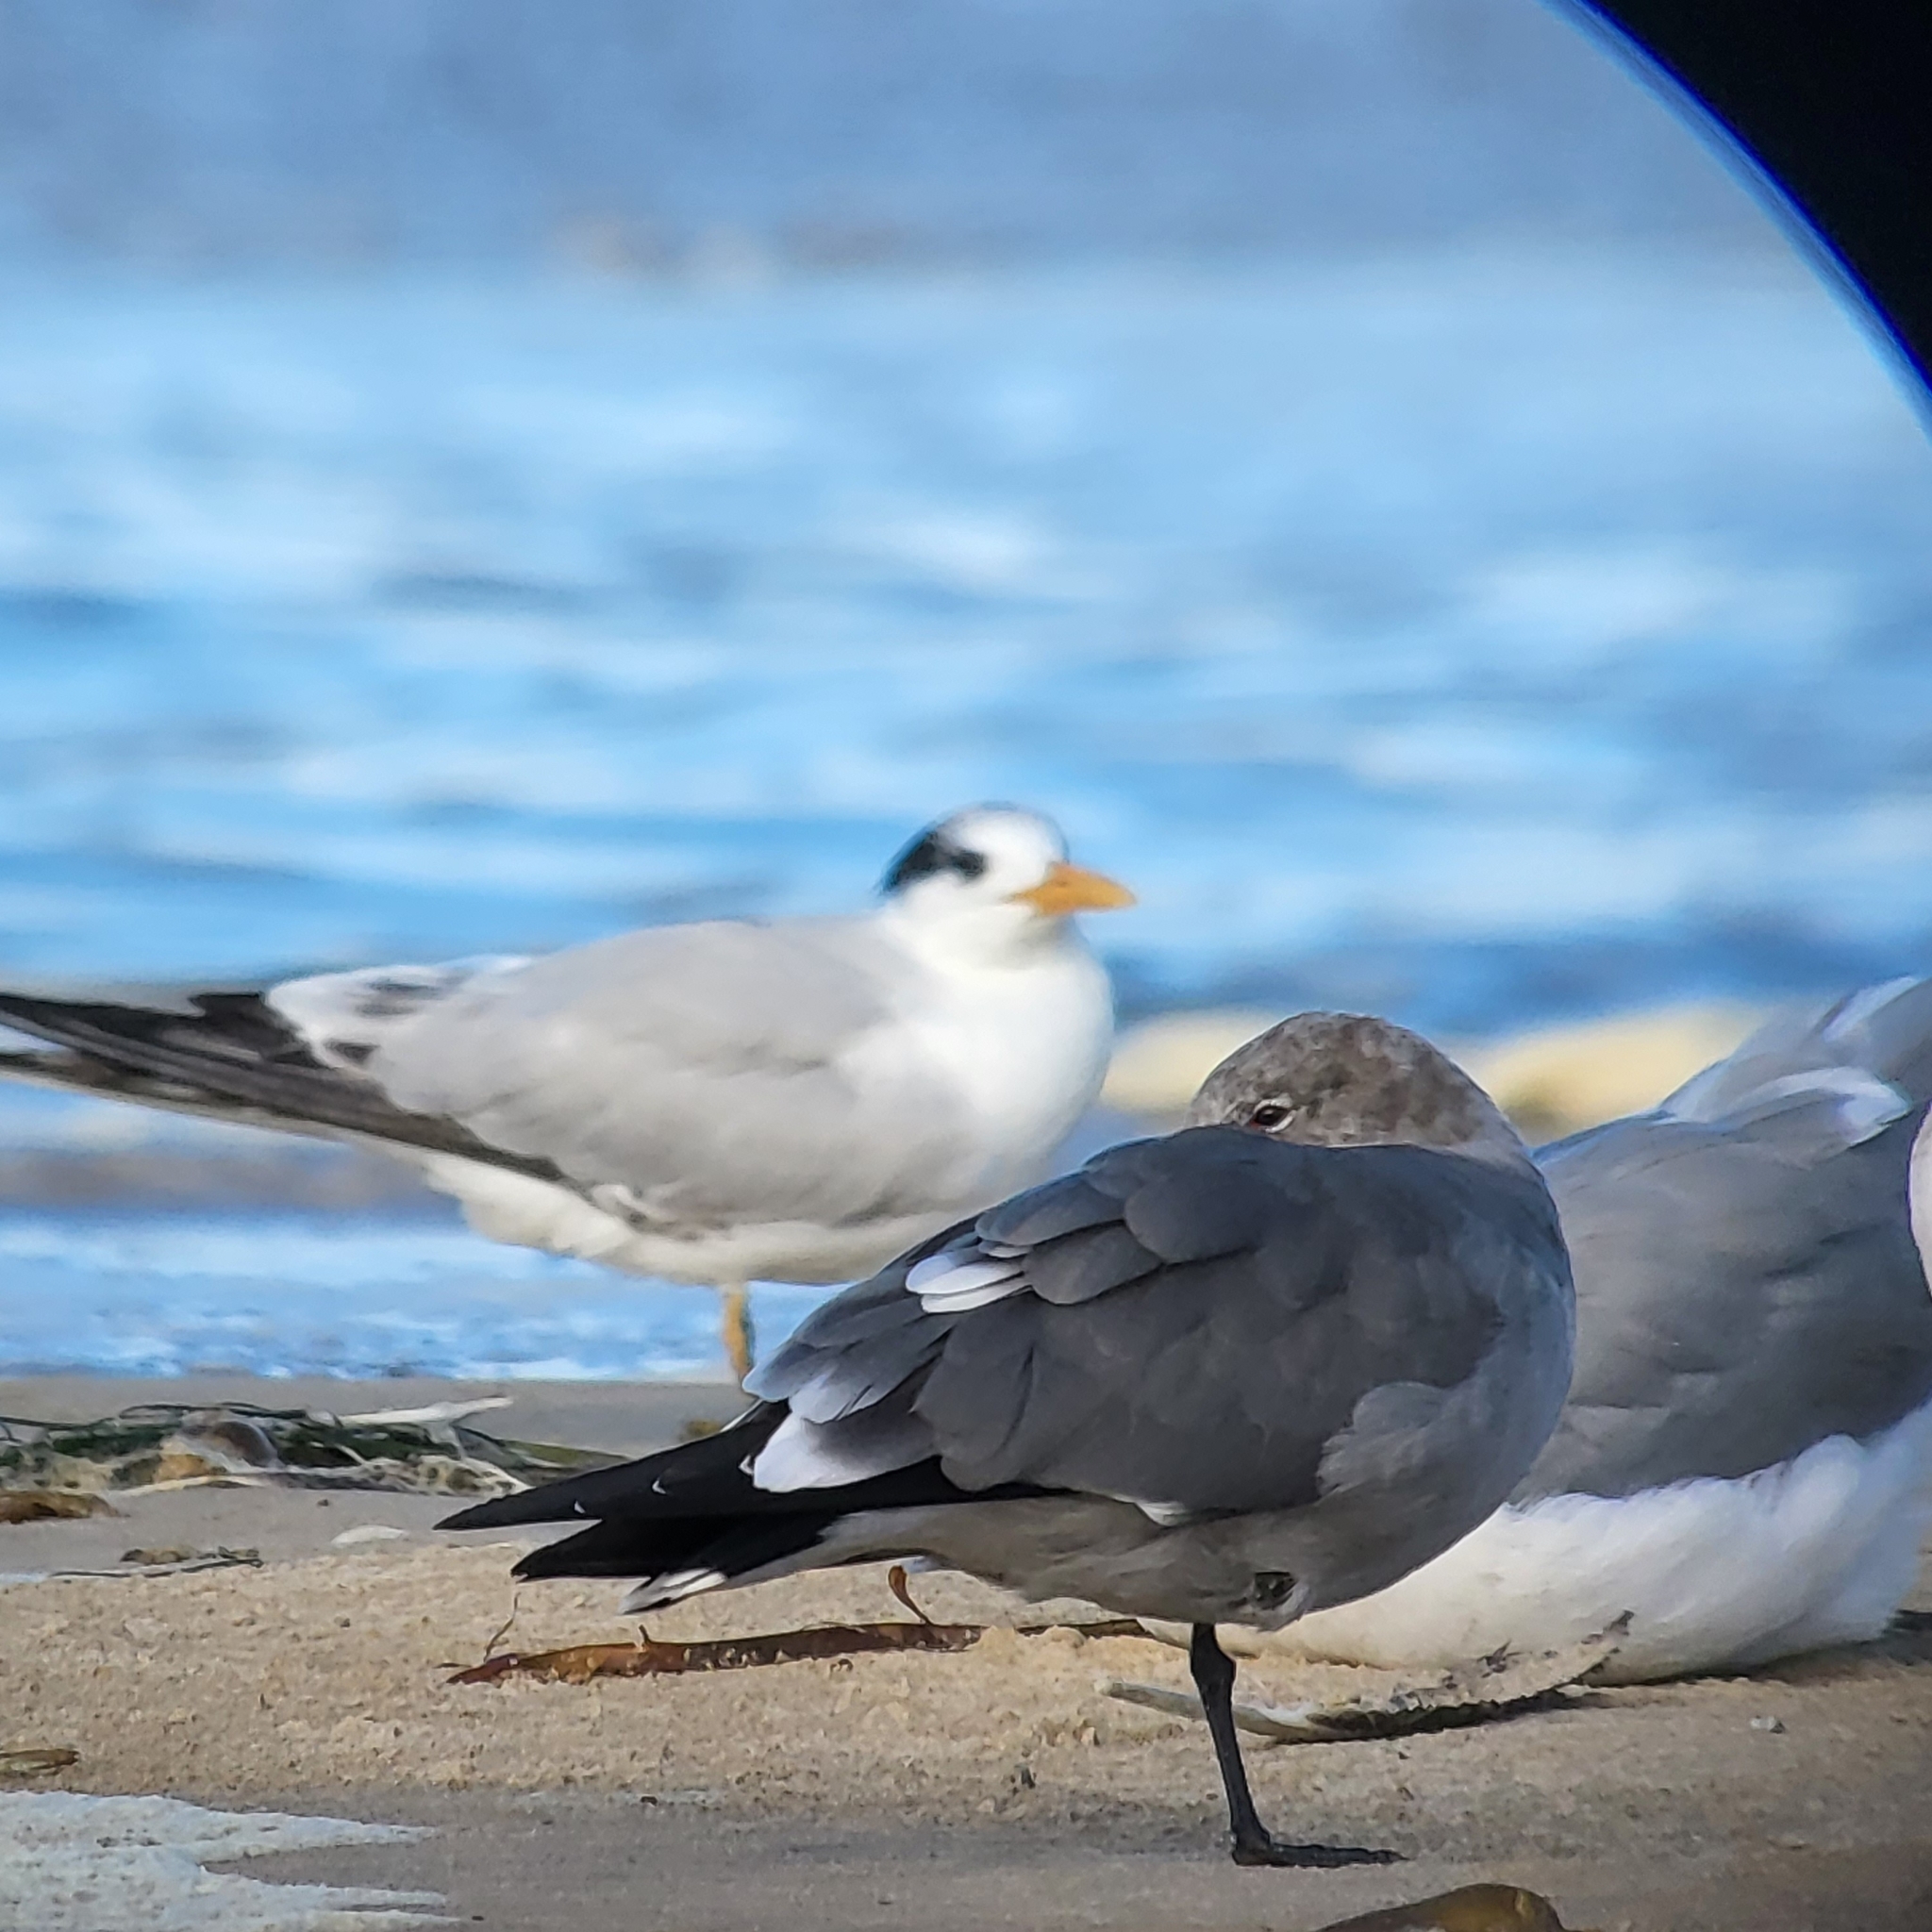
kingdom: Animalia
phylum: Chordata
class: Aves
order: Charadriiformes
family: Laridae
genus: Larus
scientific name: Larus heermanni
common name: Heermann's gull
